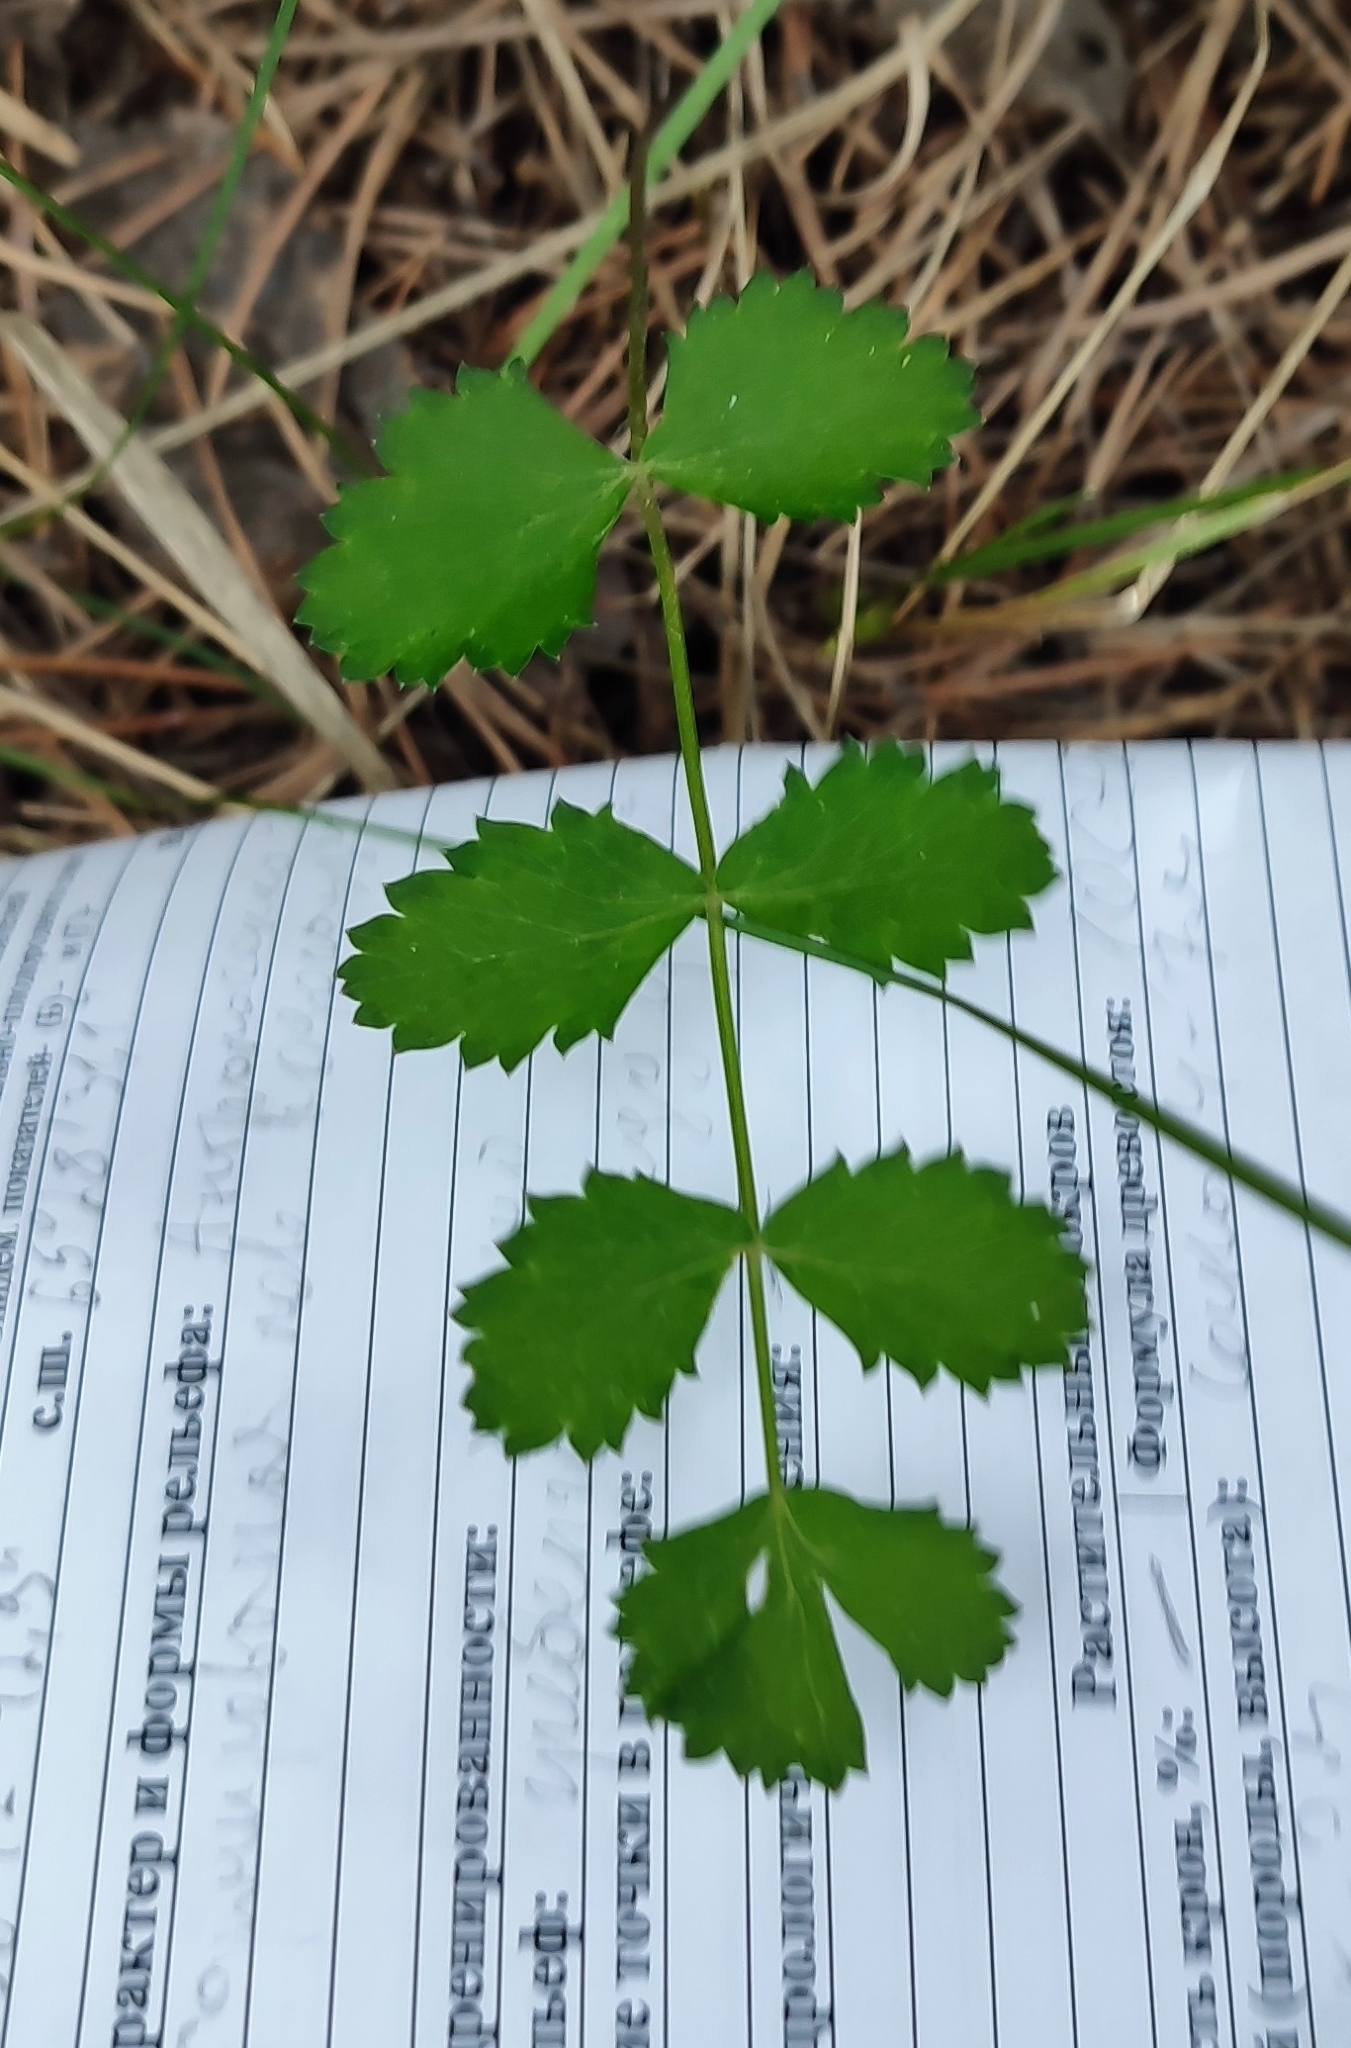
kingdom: Plantae
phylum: Tracheophyta
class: Magnoliopsida
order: Apiales
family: Apiaceae
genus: Pimpinella
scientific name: Pimpinella saxifraga
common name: Burnet-saxifrage
